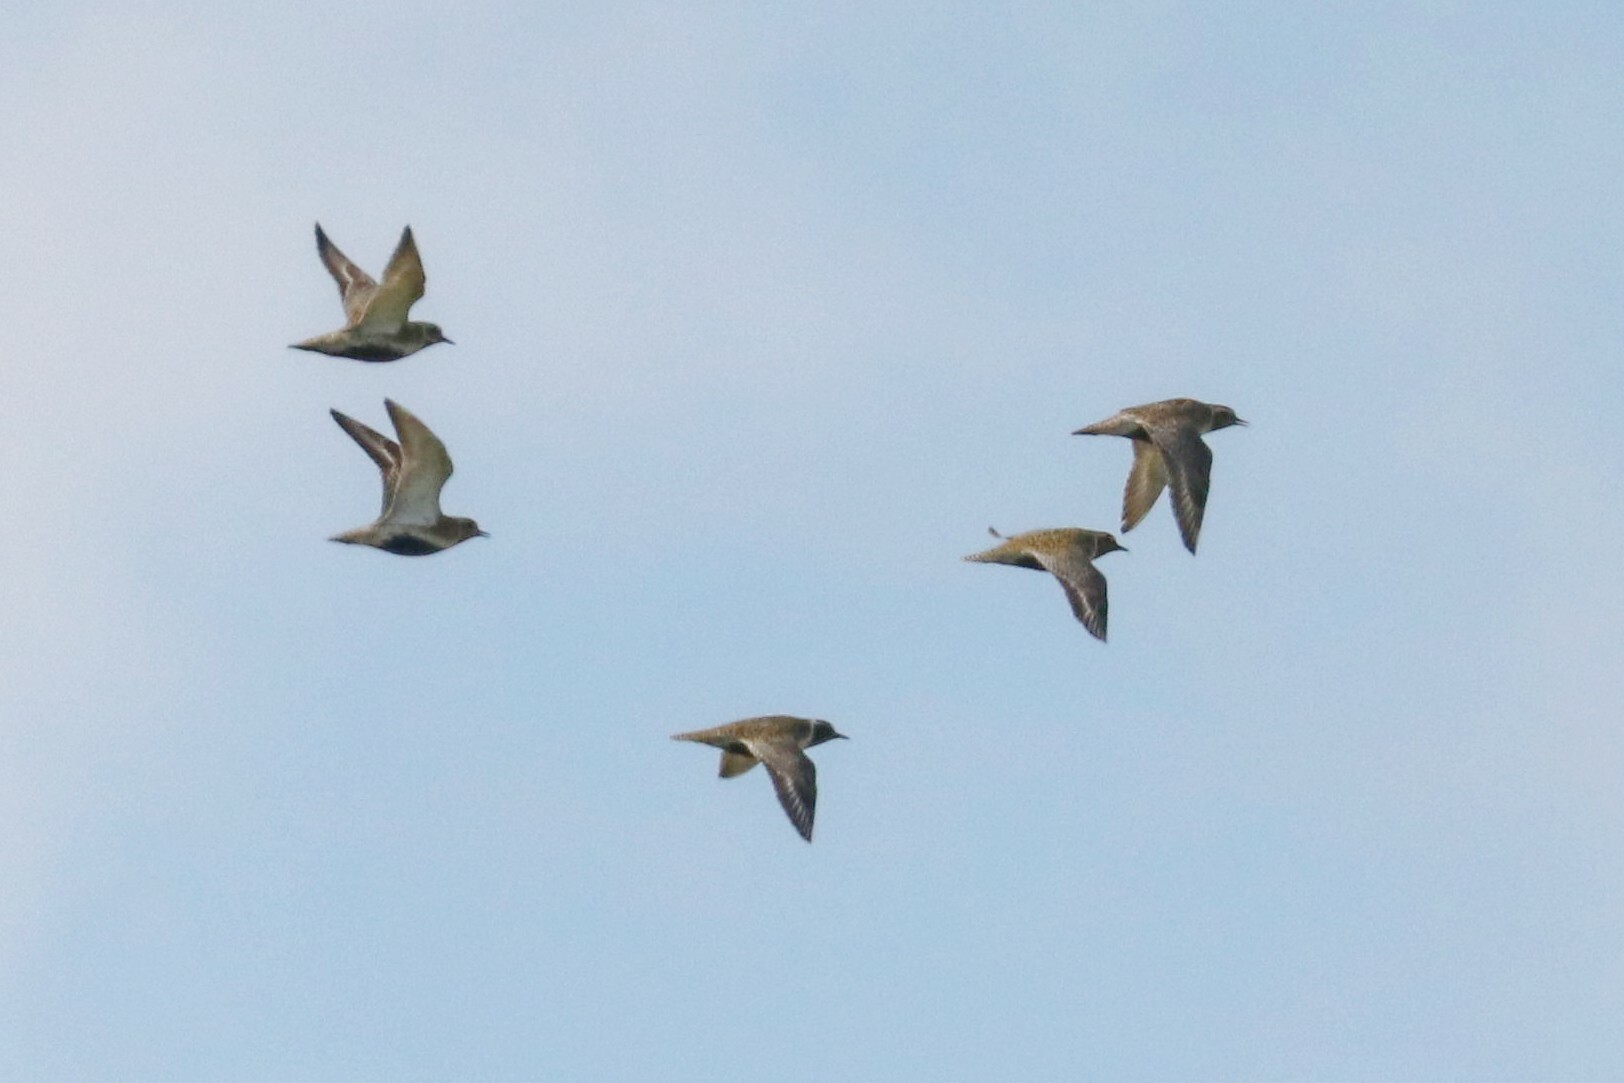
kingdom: Animalia
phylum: Chordata
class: Aves
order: Charadriiformes
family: Charadriidae
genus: Pluvialis
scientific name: Pluvialis apricaria
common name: European golden plover
